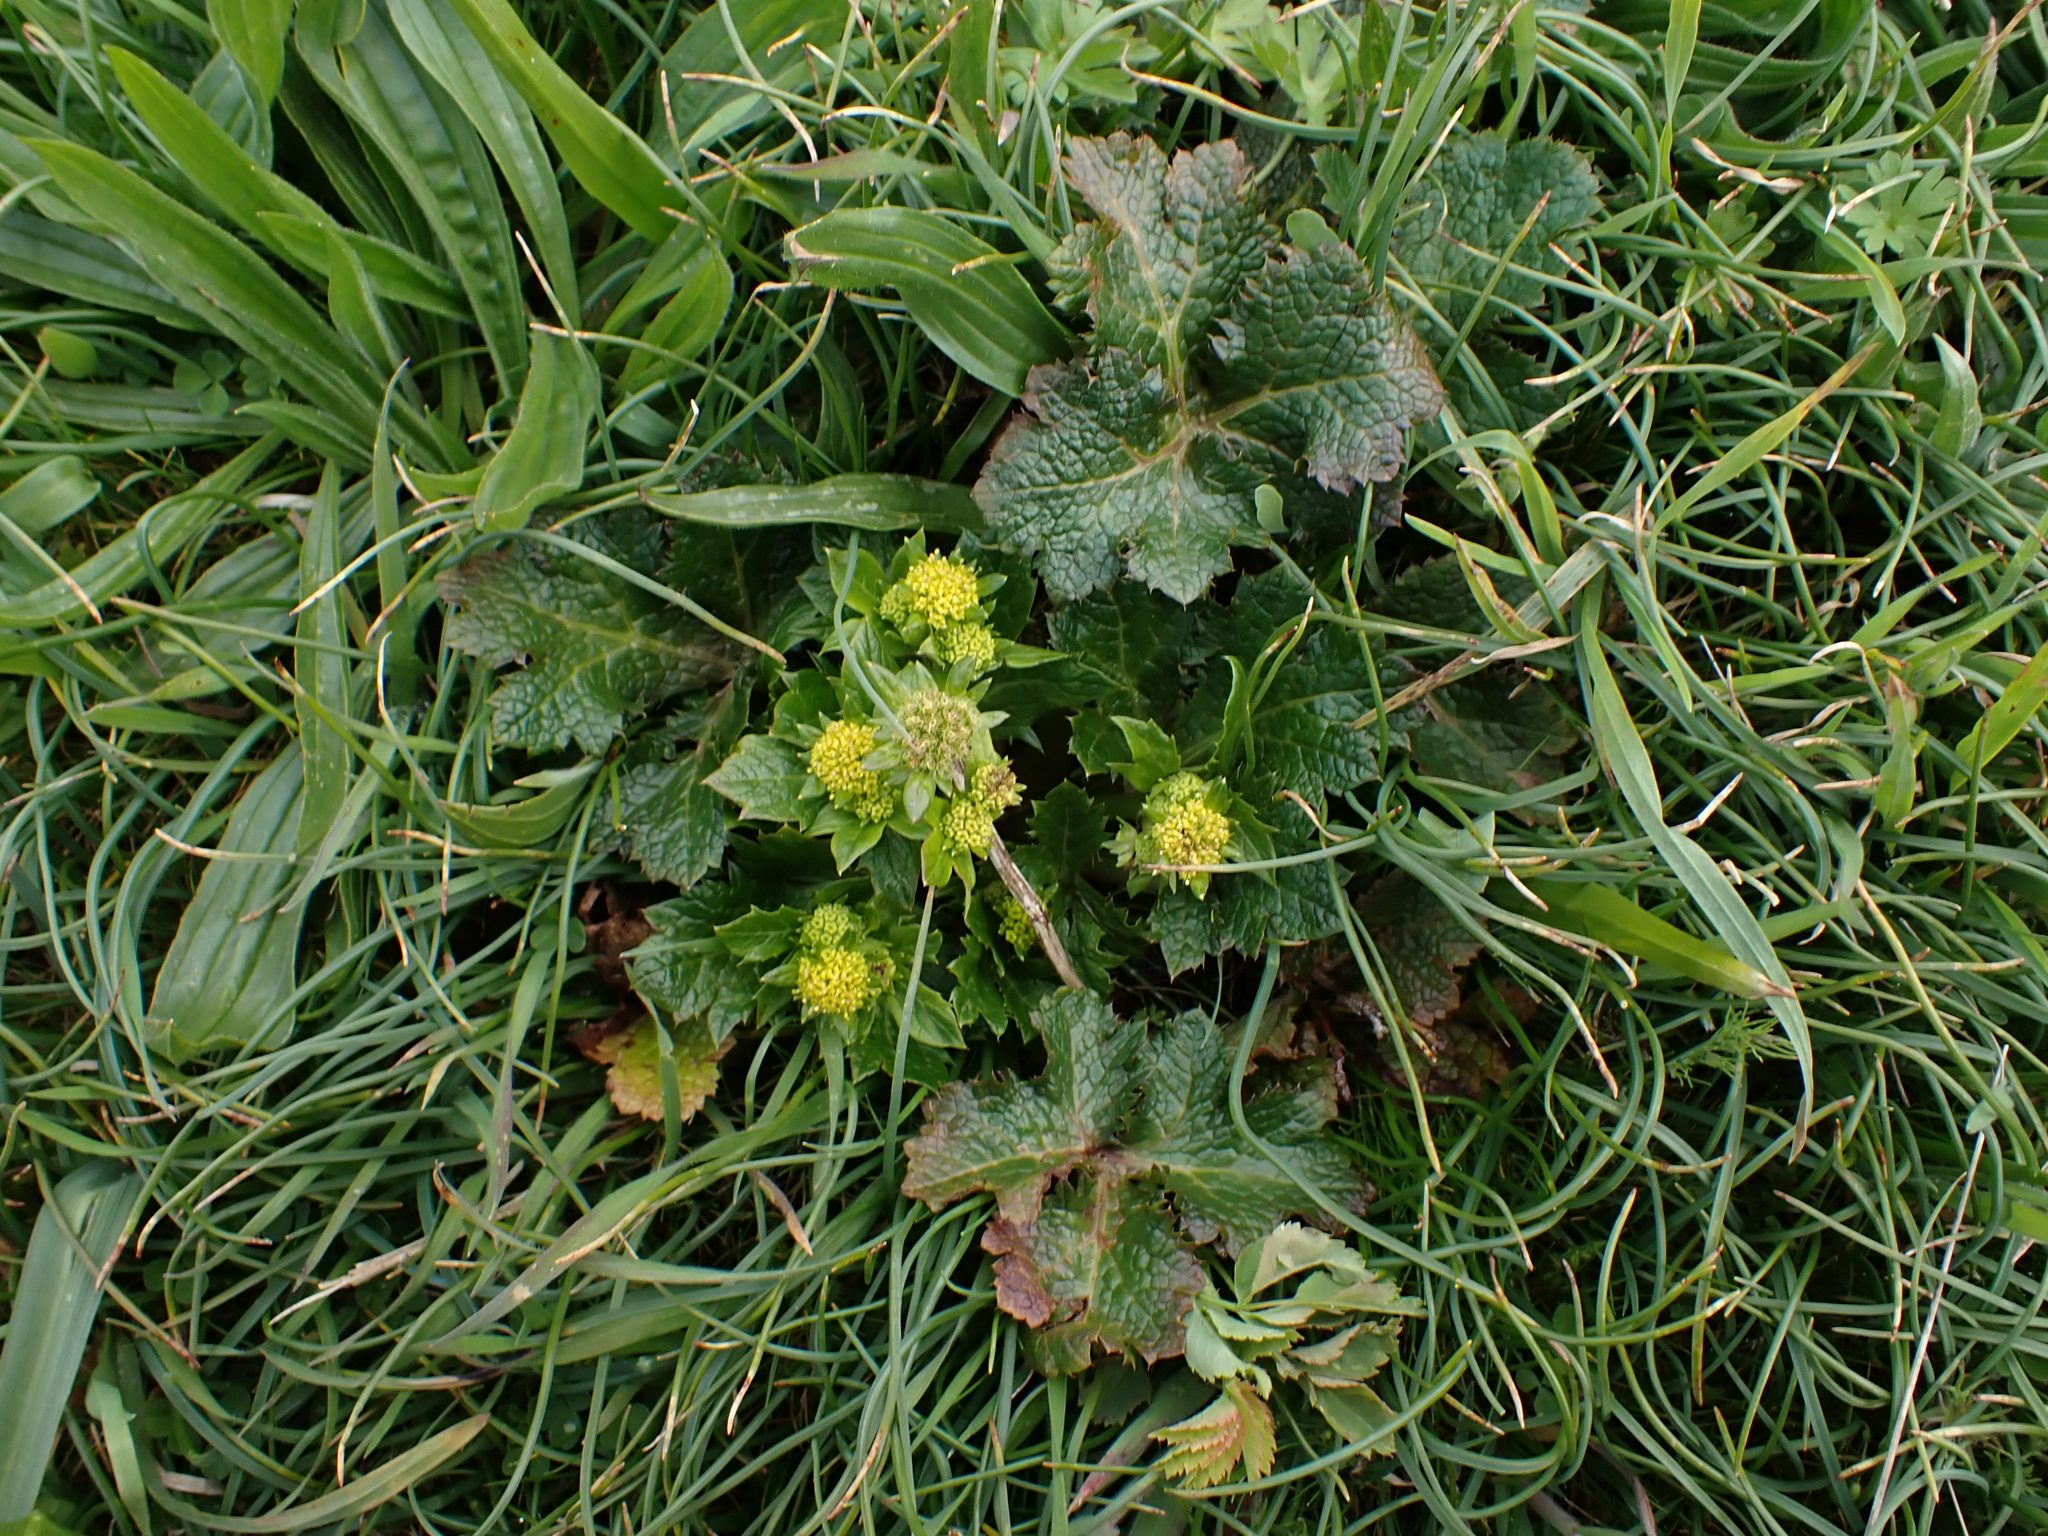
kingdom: Plantae
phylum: Tracheophyta
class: Magnoliopsida
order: Apiales
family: Apiaceae
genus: Sanicula
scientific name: Sanicula crassicaulis
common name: Western snakeroot
